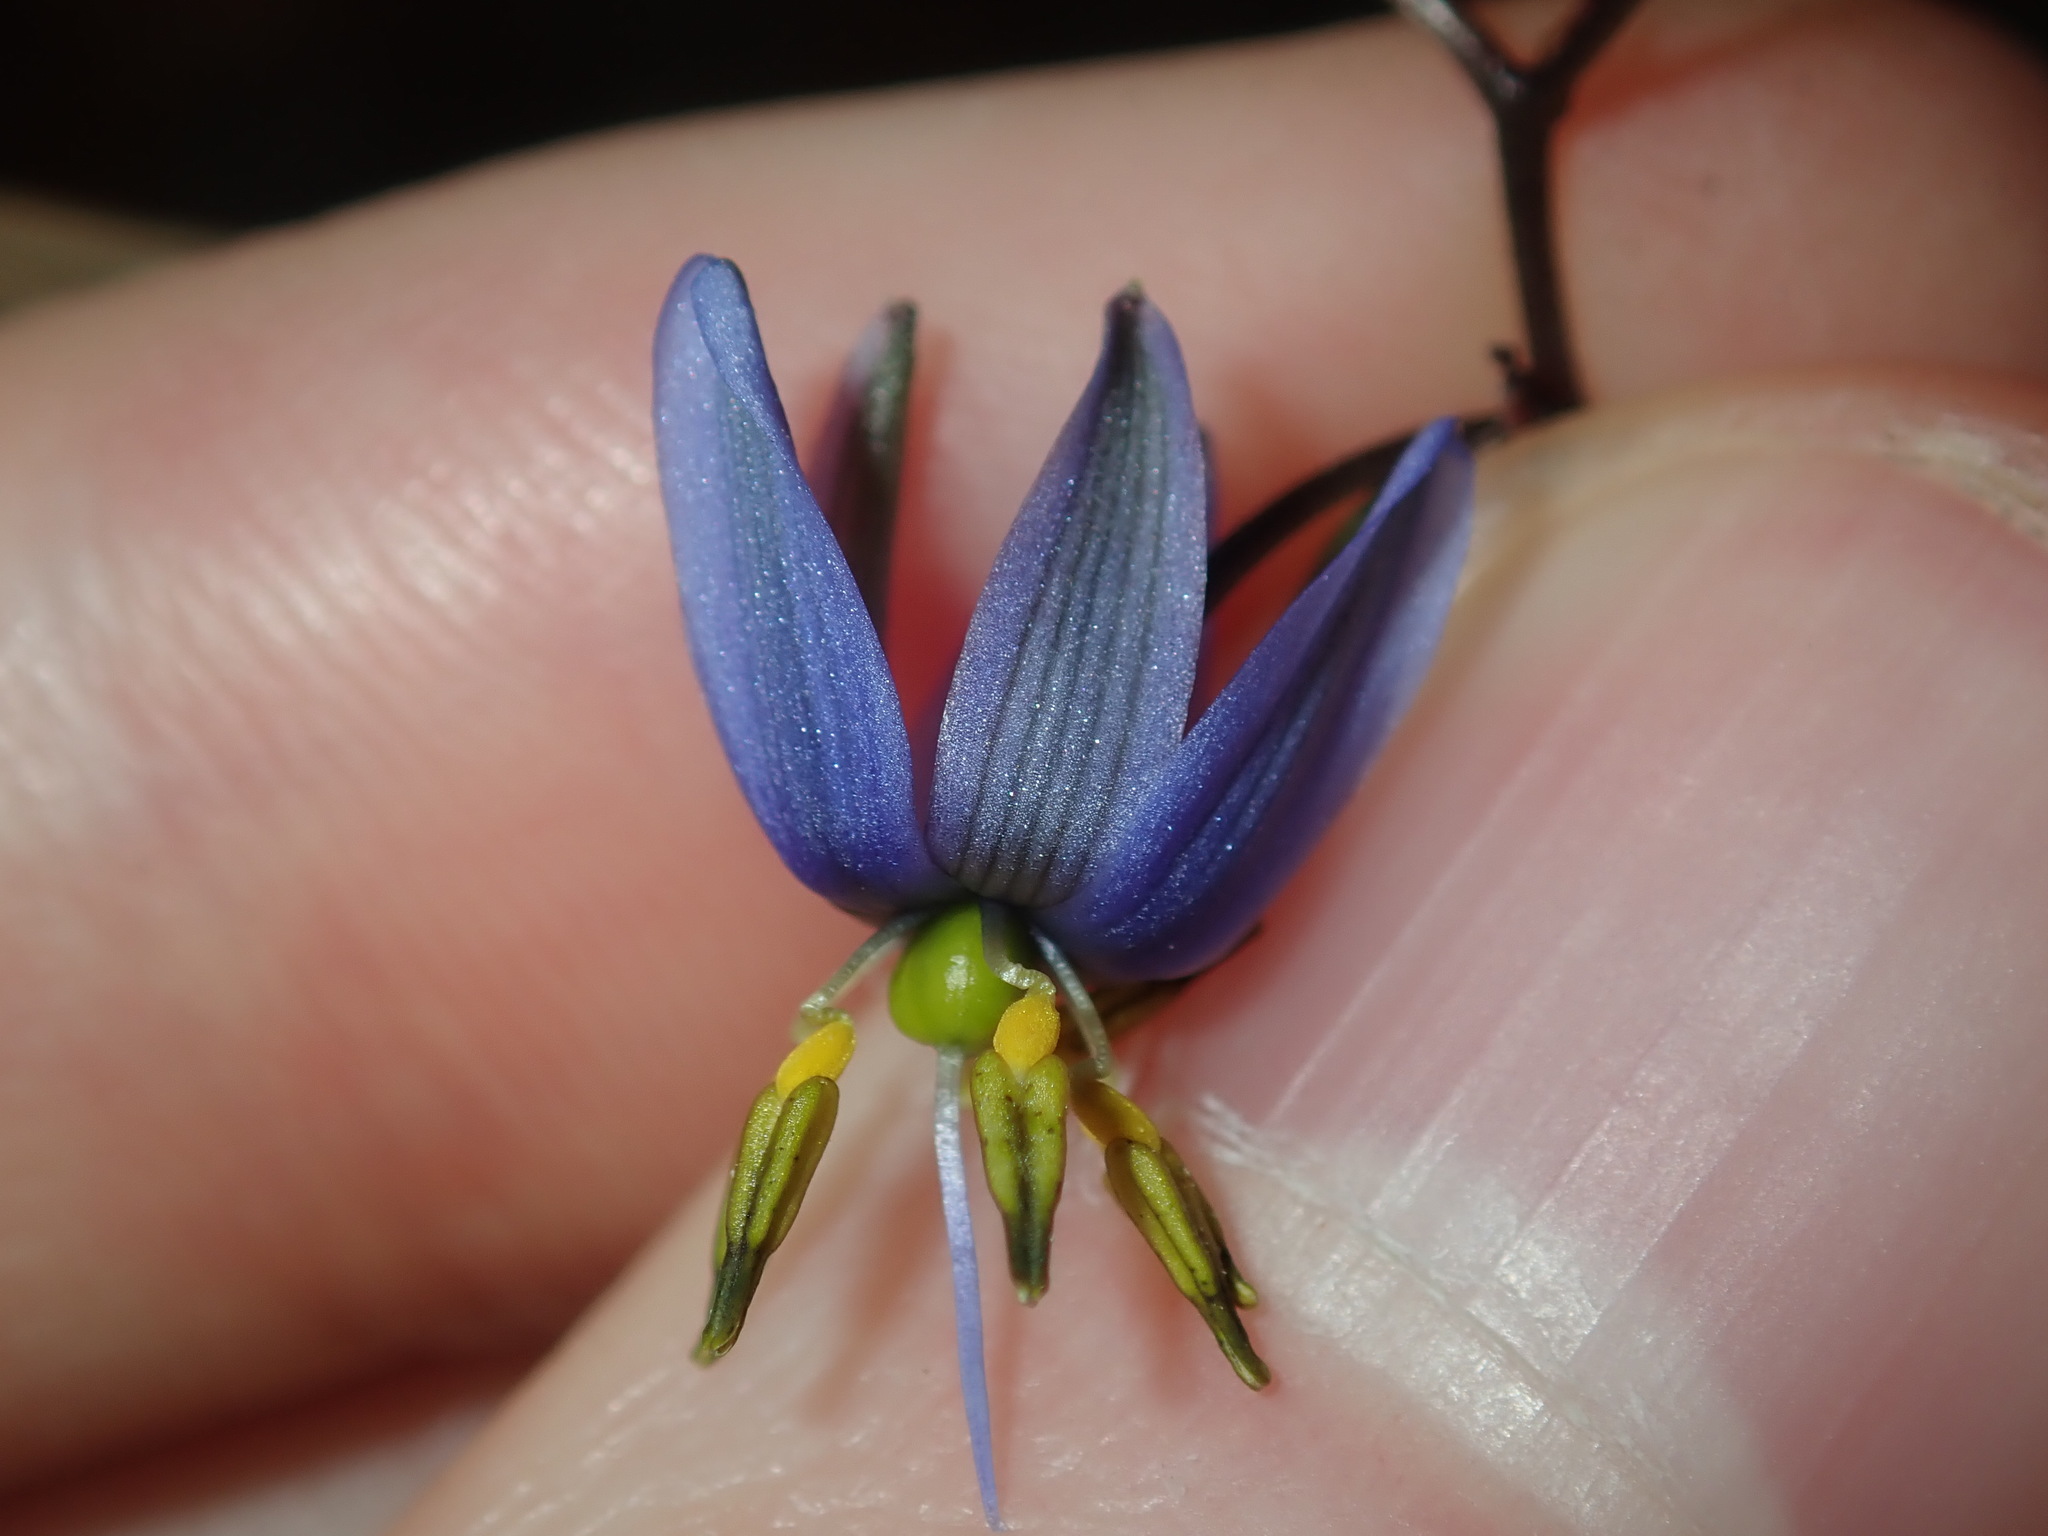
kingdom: Plantae
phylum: Tracheophyta
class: Liliopsida
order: Asparagales
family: Asphodelaceae
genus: Dianella
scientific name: Dianella revoluta
